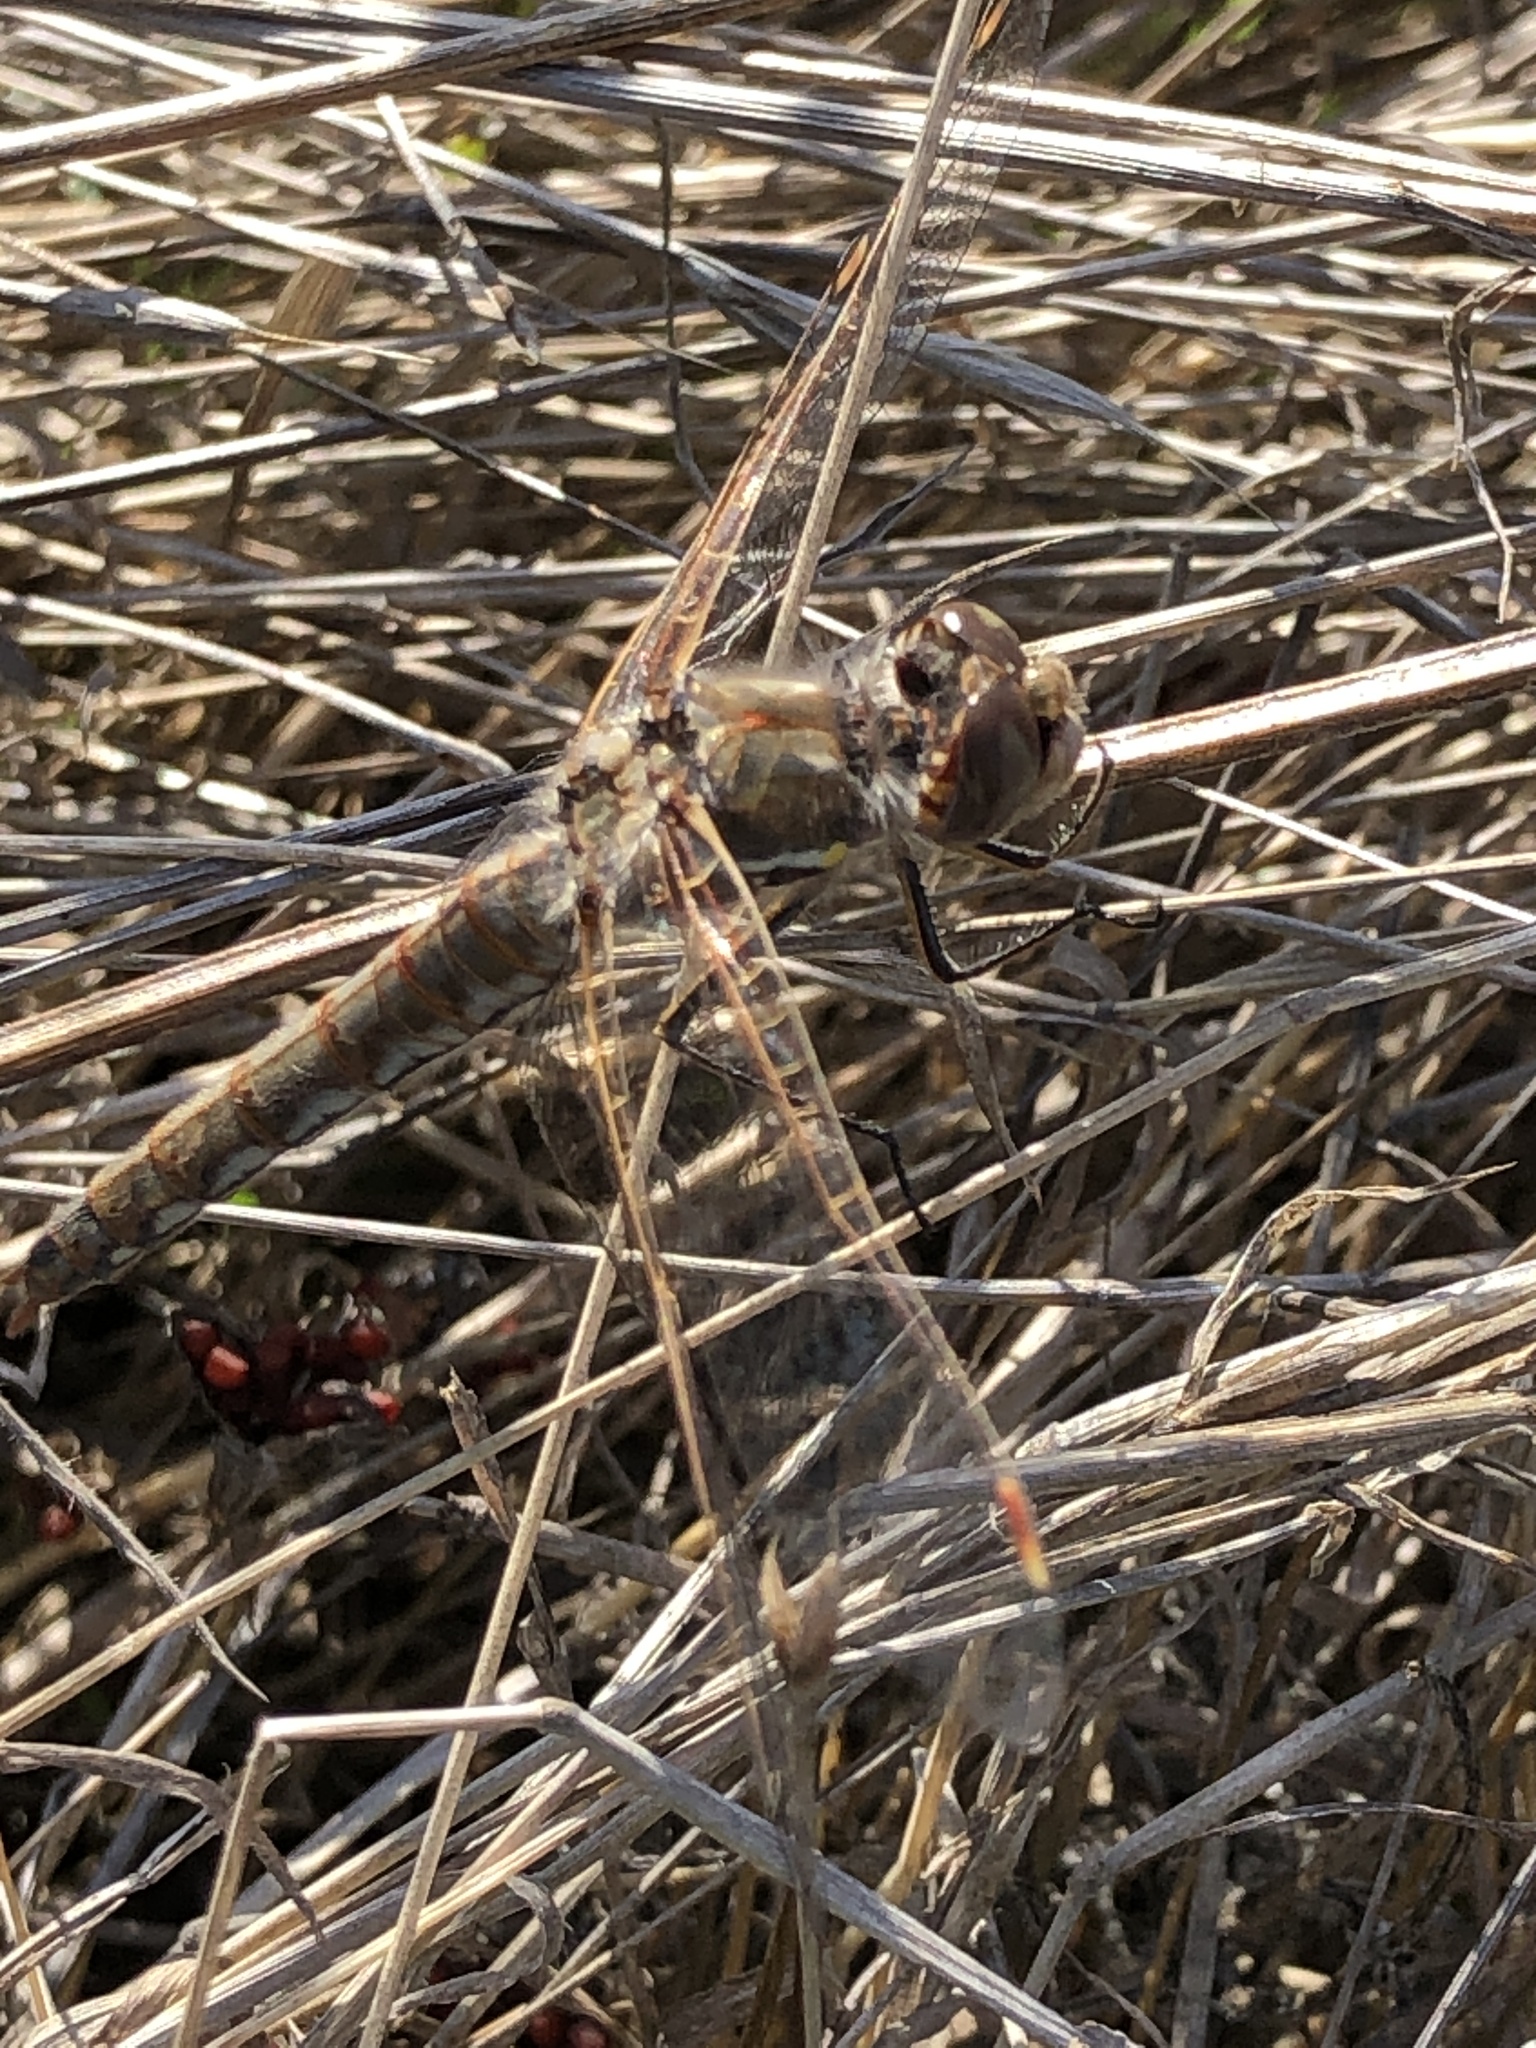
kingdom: Animalia
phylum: Arthropoda
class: Insecta
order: Odonata
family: Libellulidae
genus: Sympetrum
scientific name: Sympetrum corruptum
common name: Variegated meadowhawk
